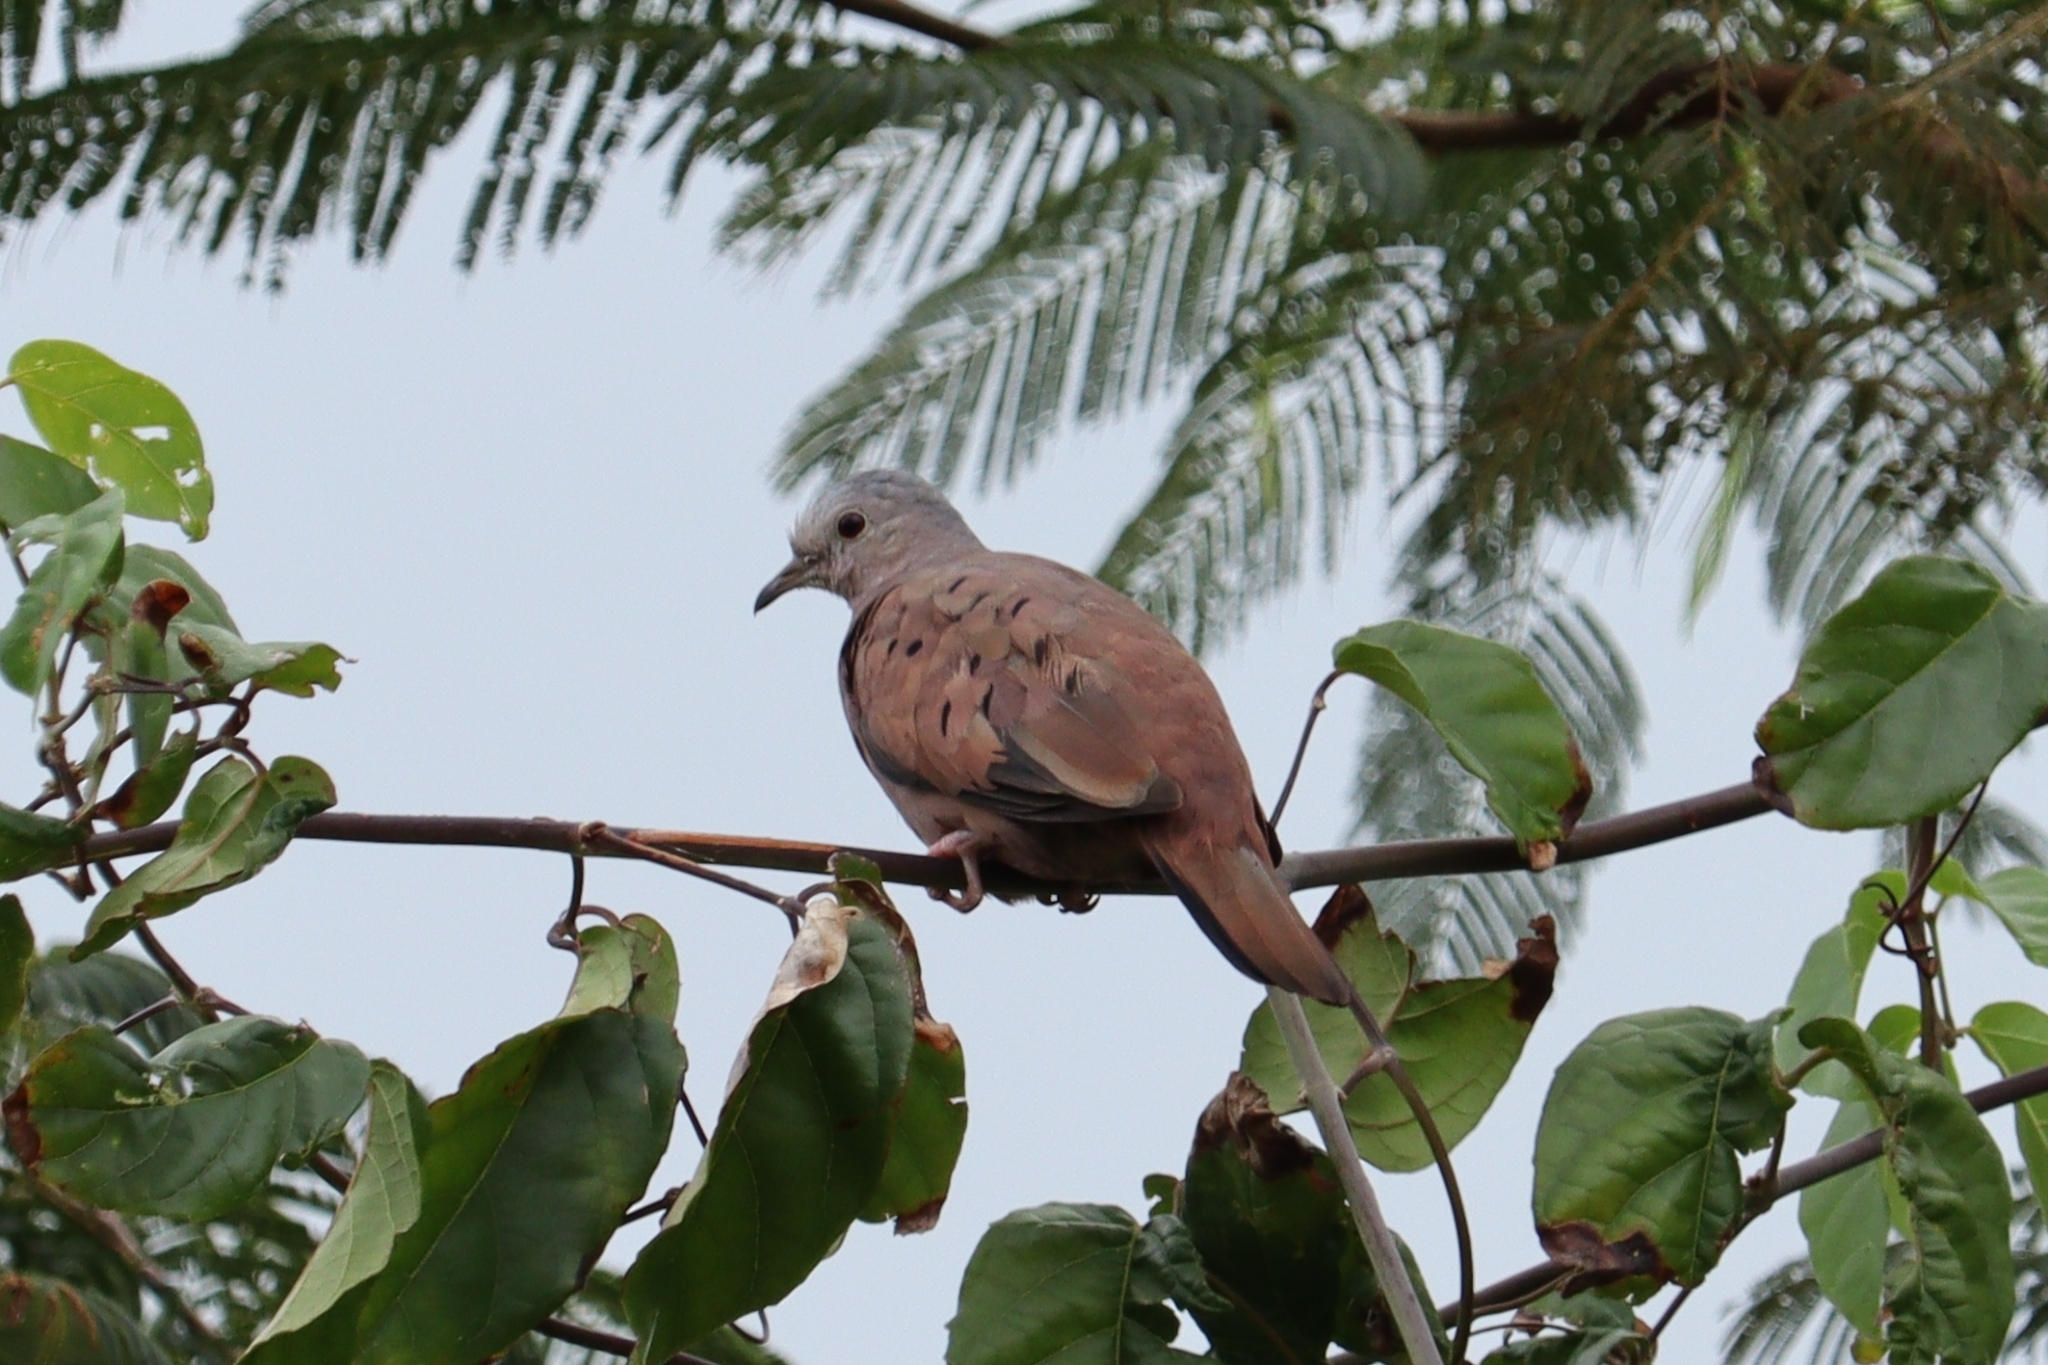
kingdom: Animalia
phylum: Chordata
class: Aves
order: Columbiformes
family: Columbidae
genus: Columbina
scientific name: Columbina talpacoti
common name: Ruddy ground dove
